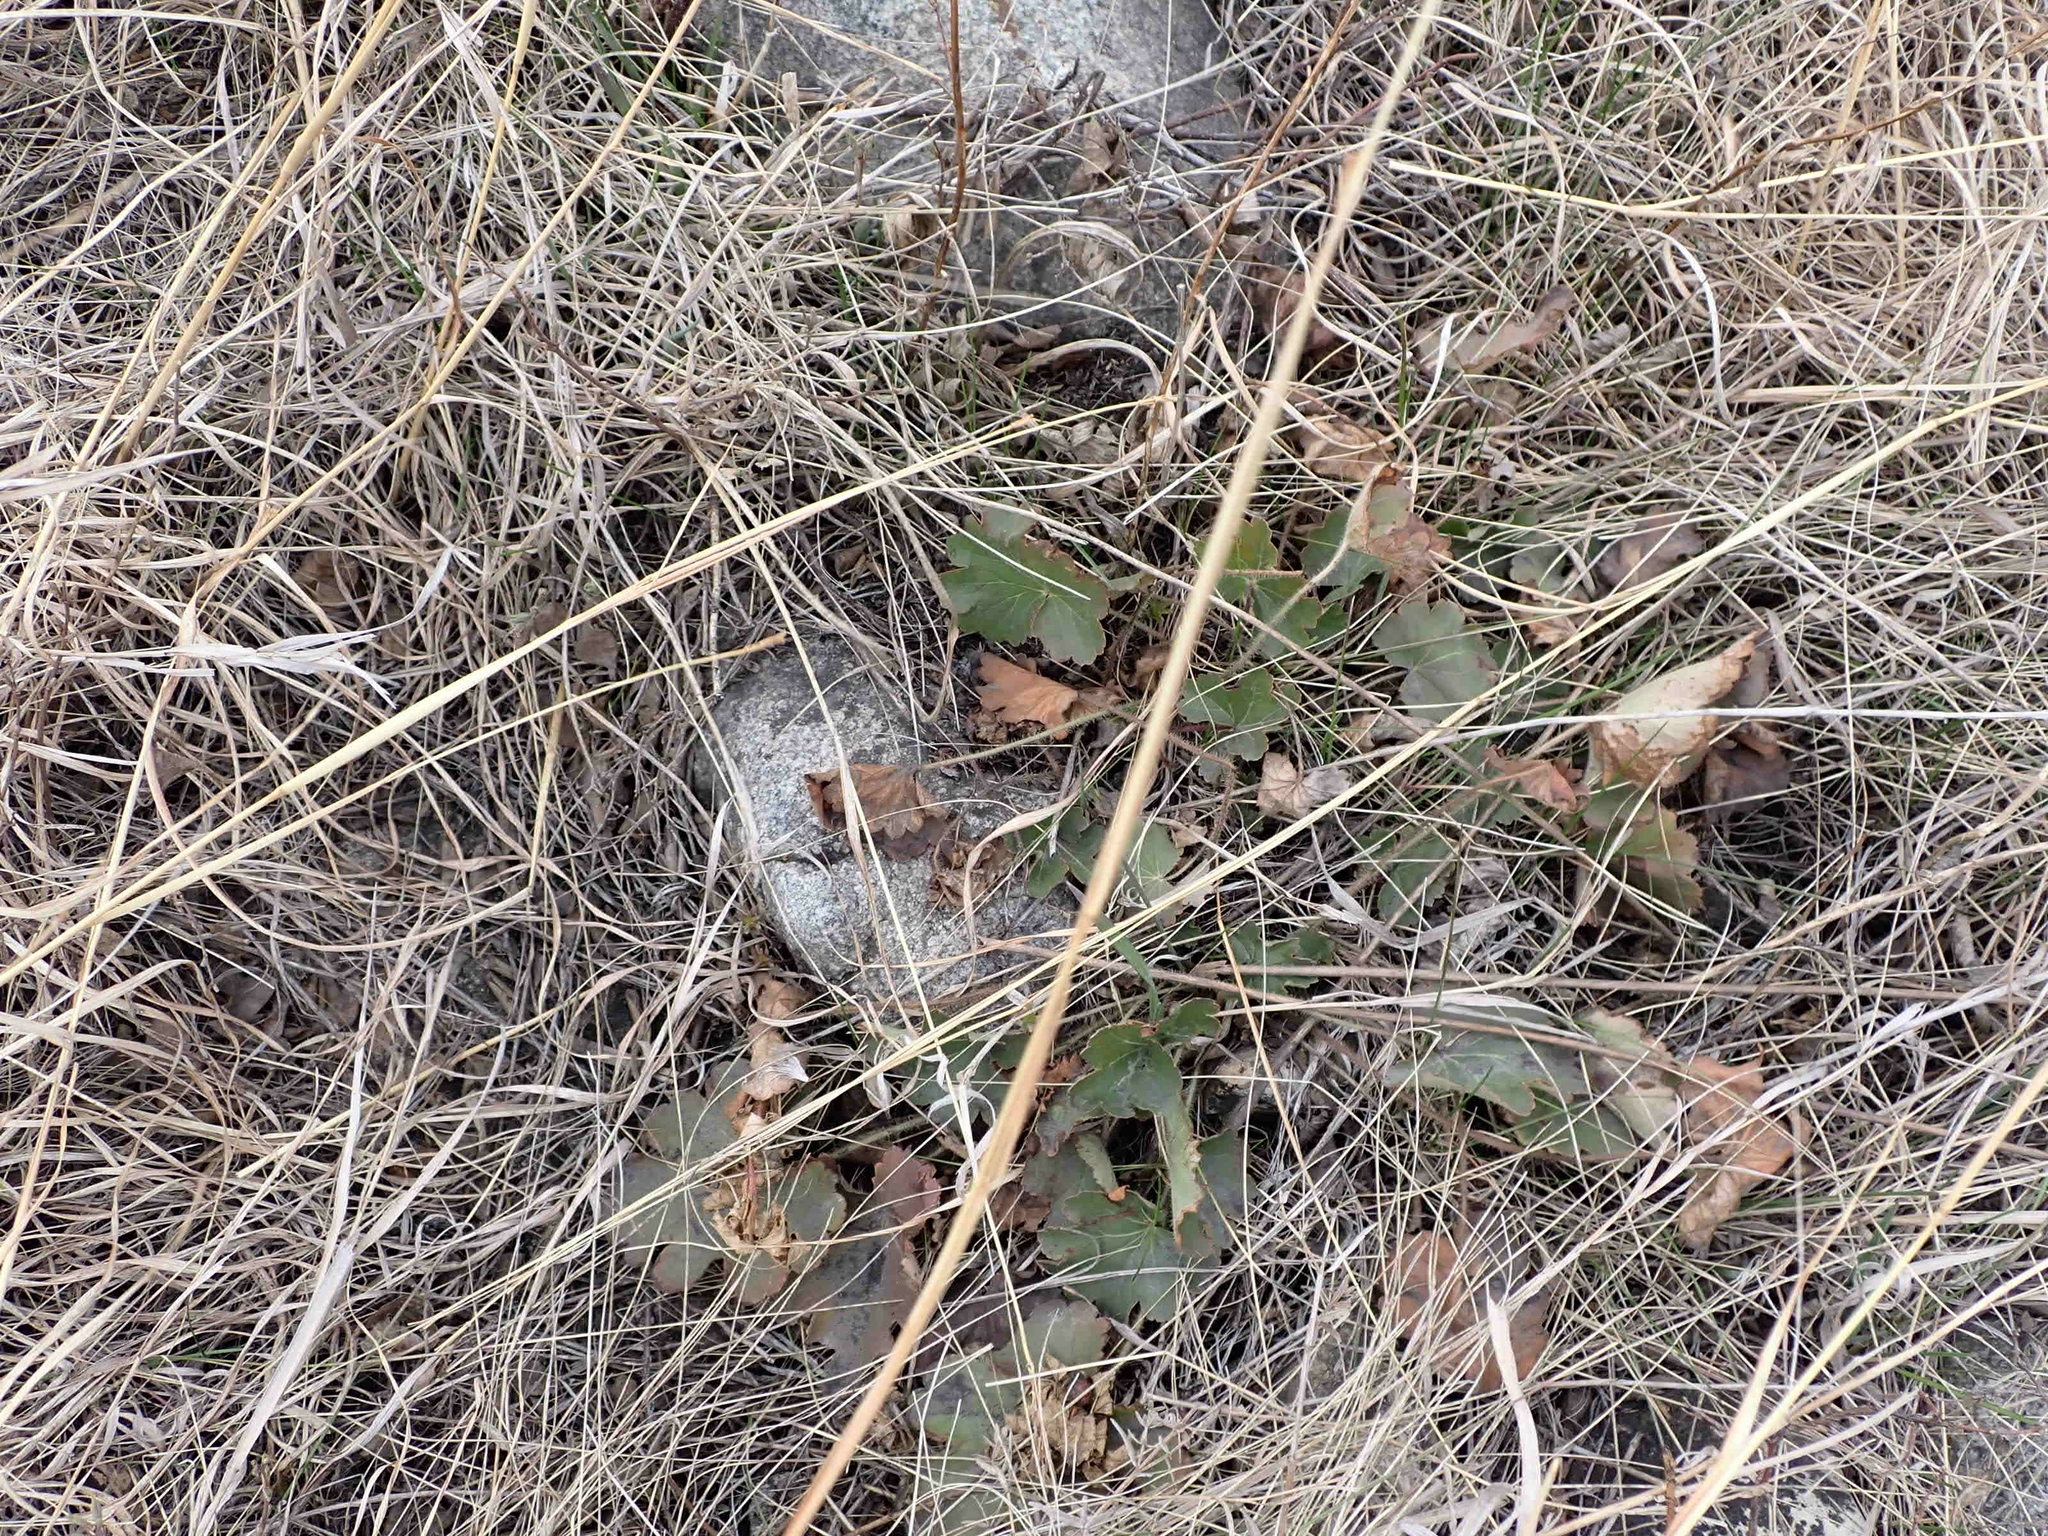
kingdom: Plantae
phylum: Tracheophyta
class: Magnoliopsida
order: Saxifragales
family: Saxifragaceae
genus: Heuchera
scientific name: Heuchera richardsonii
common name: Richardson's alumroot
